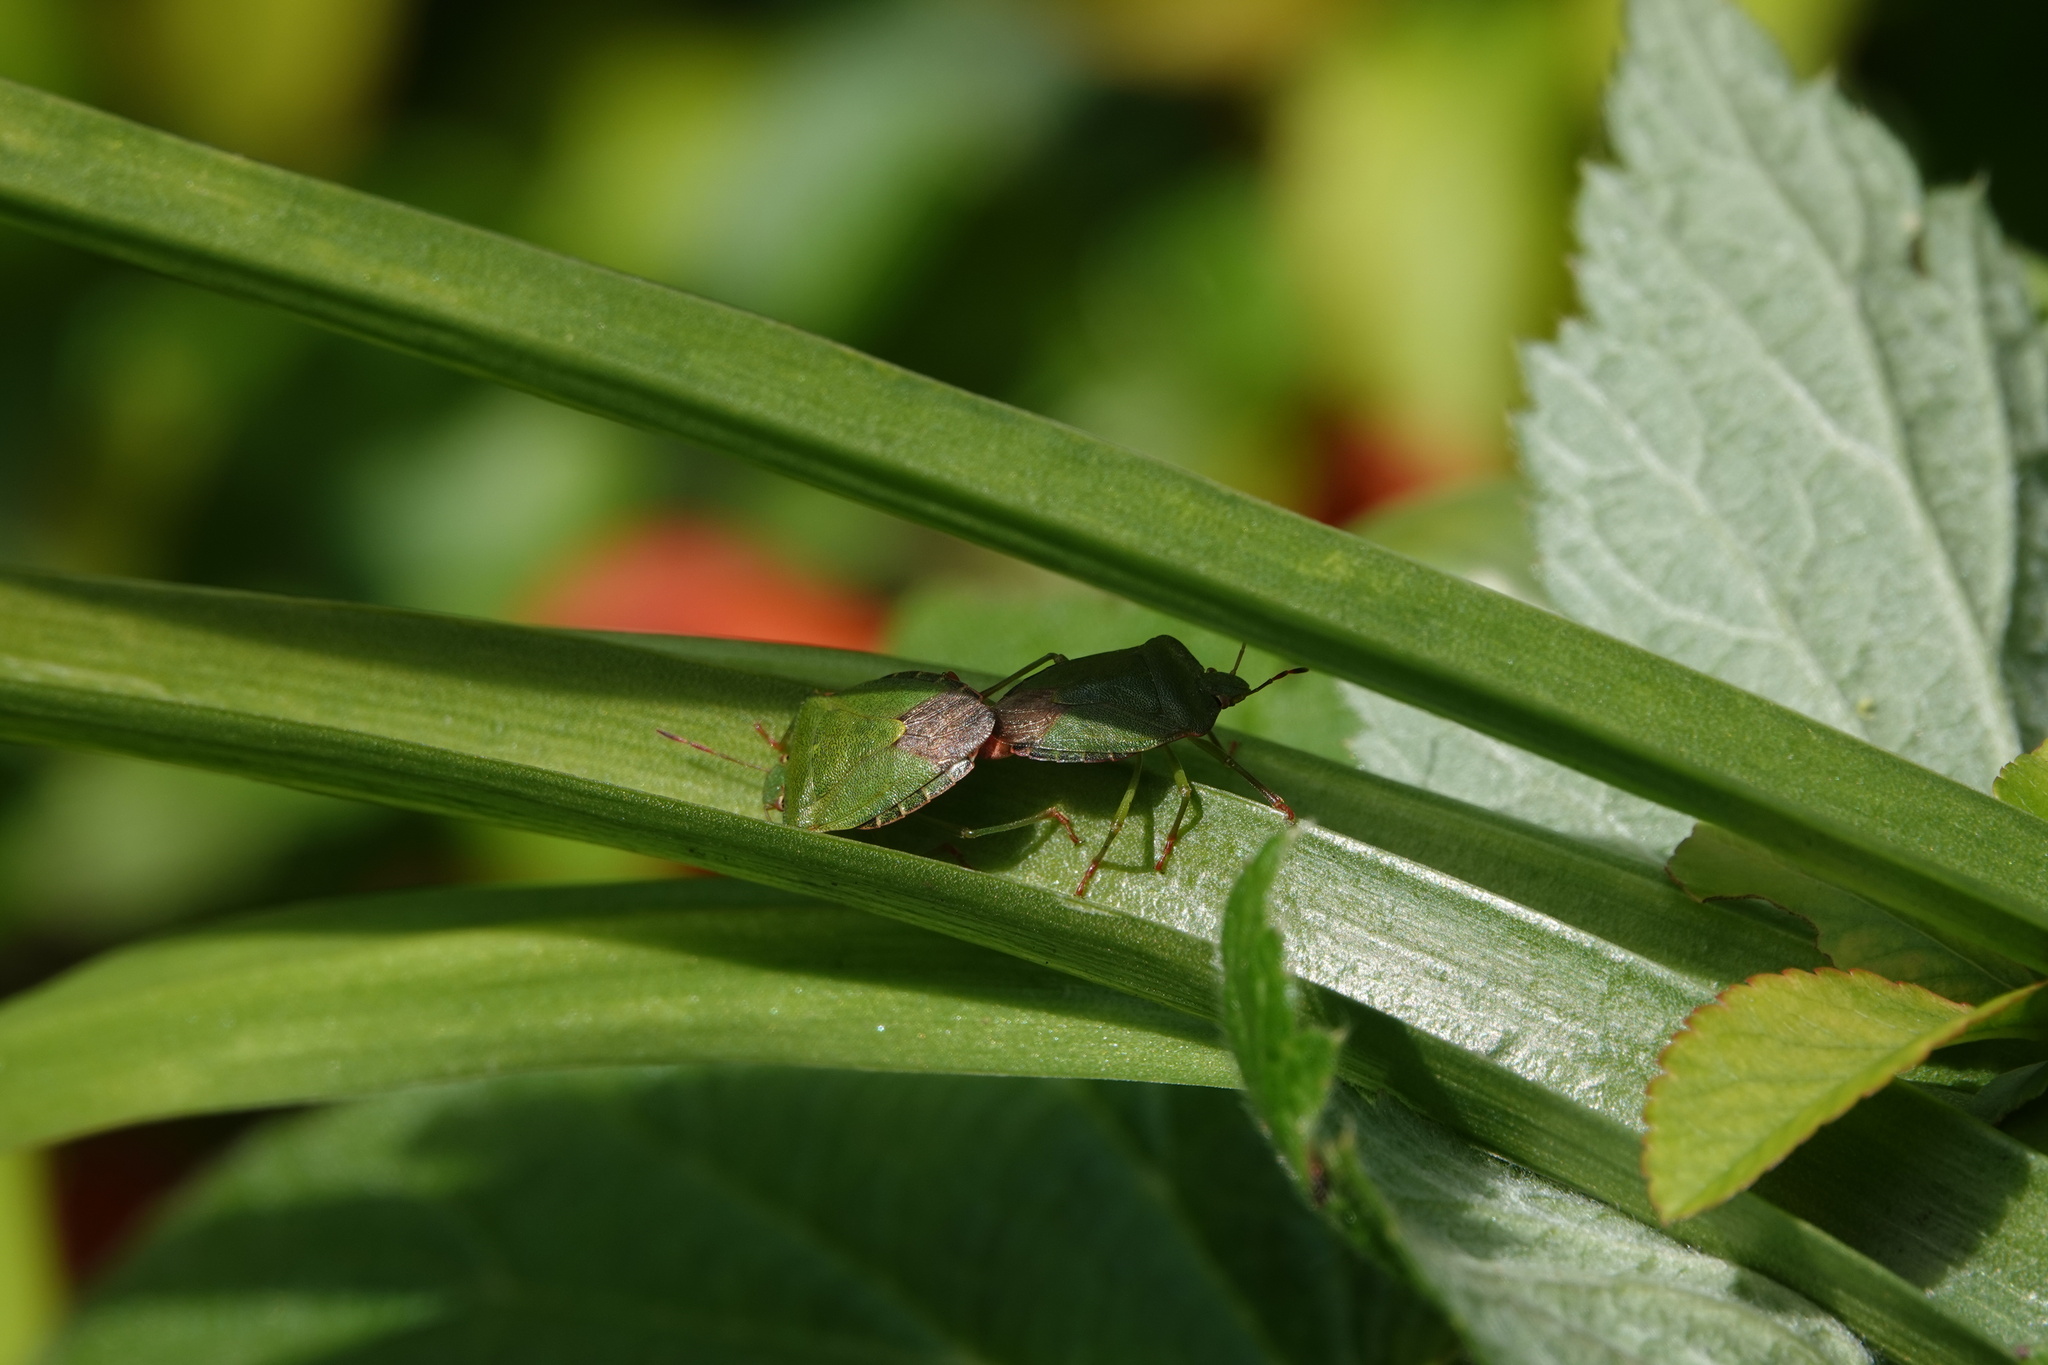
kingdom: Animalia
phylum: Arthropoda
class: Insecta
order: Hemiptera
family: Pentatomidae
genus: Palomena
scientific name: Palomena prasina
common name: Green shieldbug
